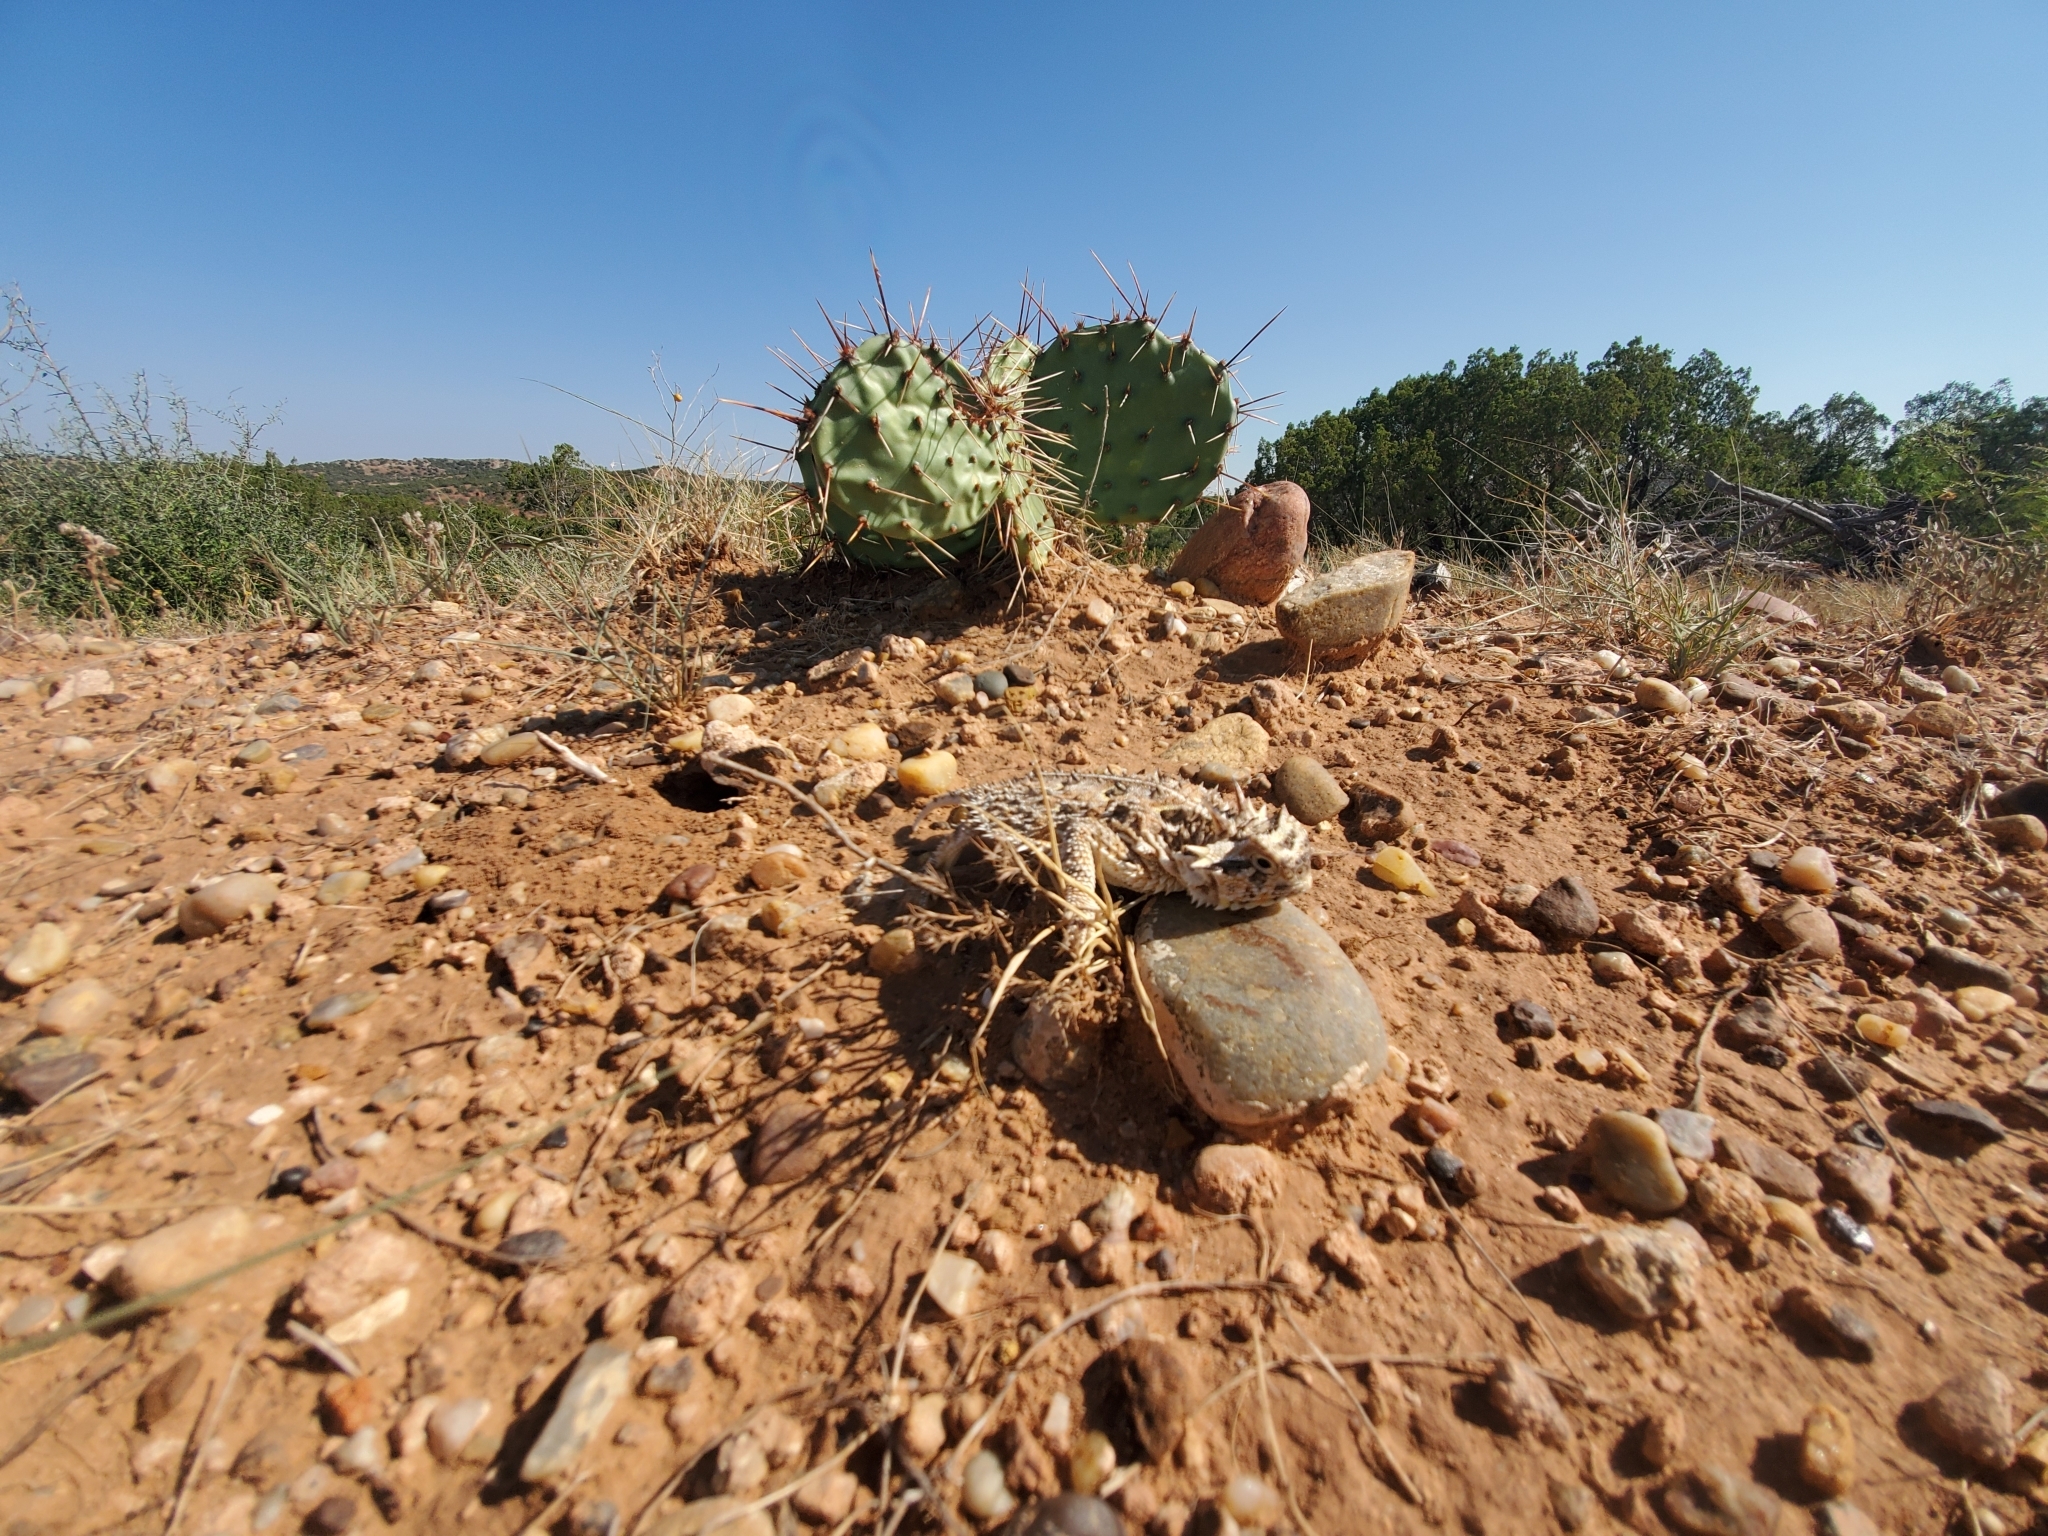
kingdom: Animalia
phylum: Chordata
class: Squamata
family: Phrynosomatidae
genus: Phrynosoma
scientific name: Phrynosoma cornutum
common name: Texas horned lizard
